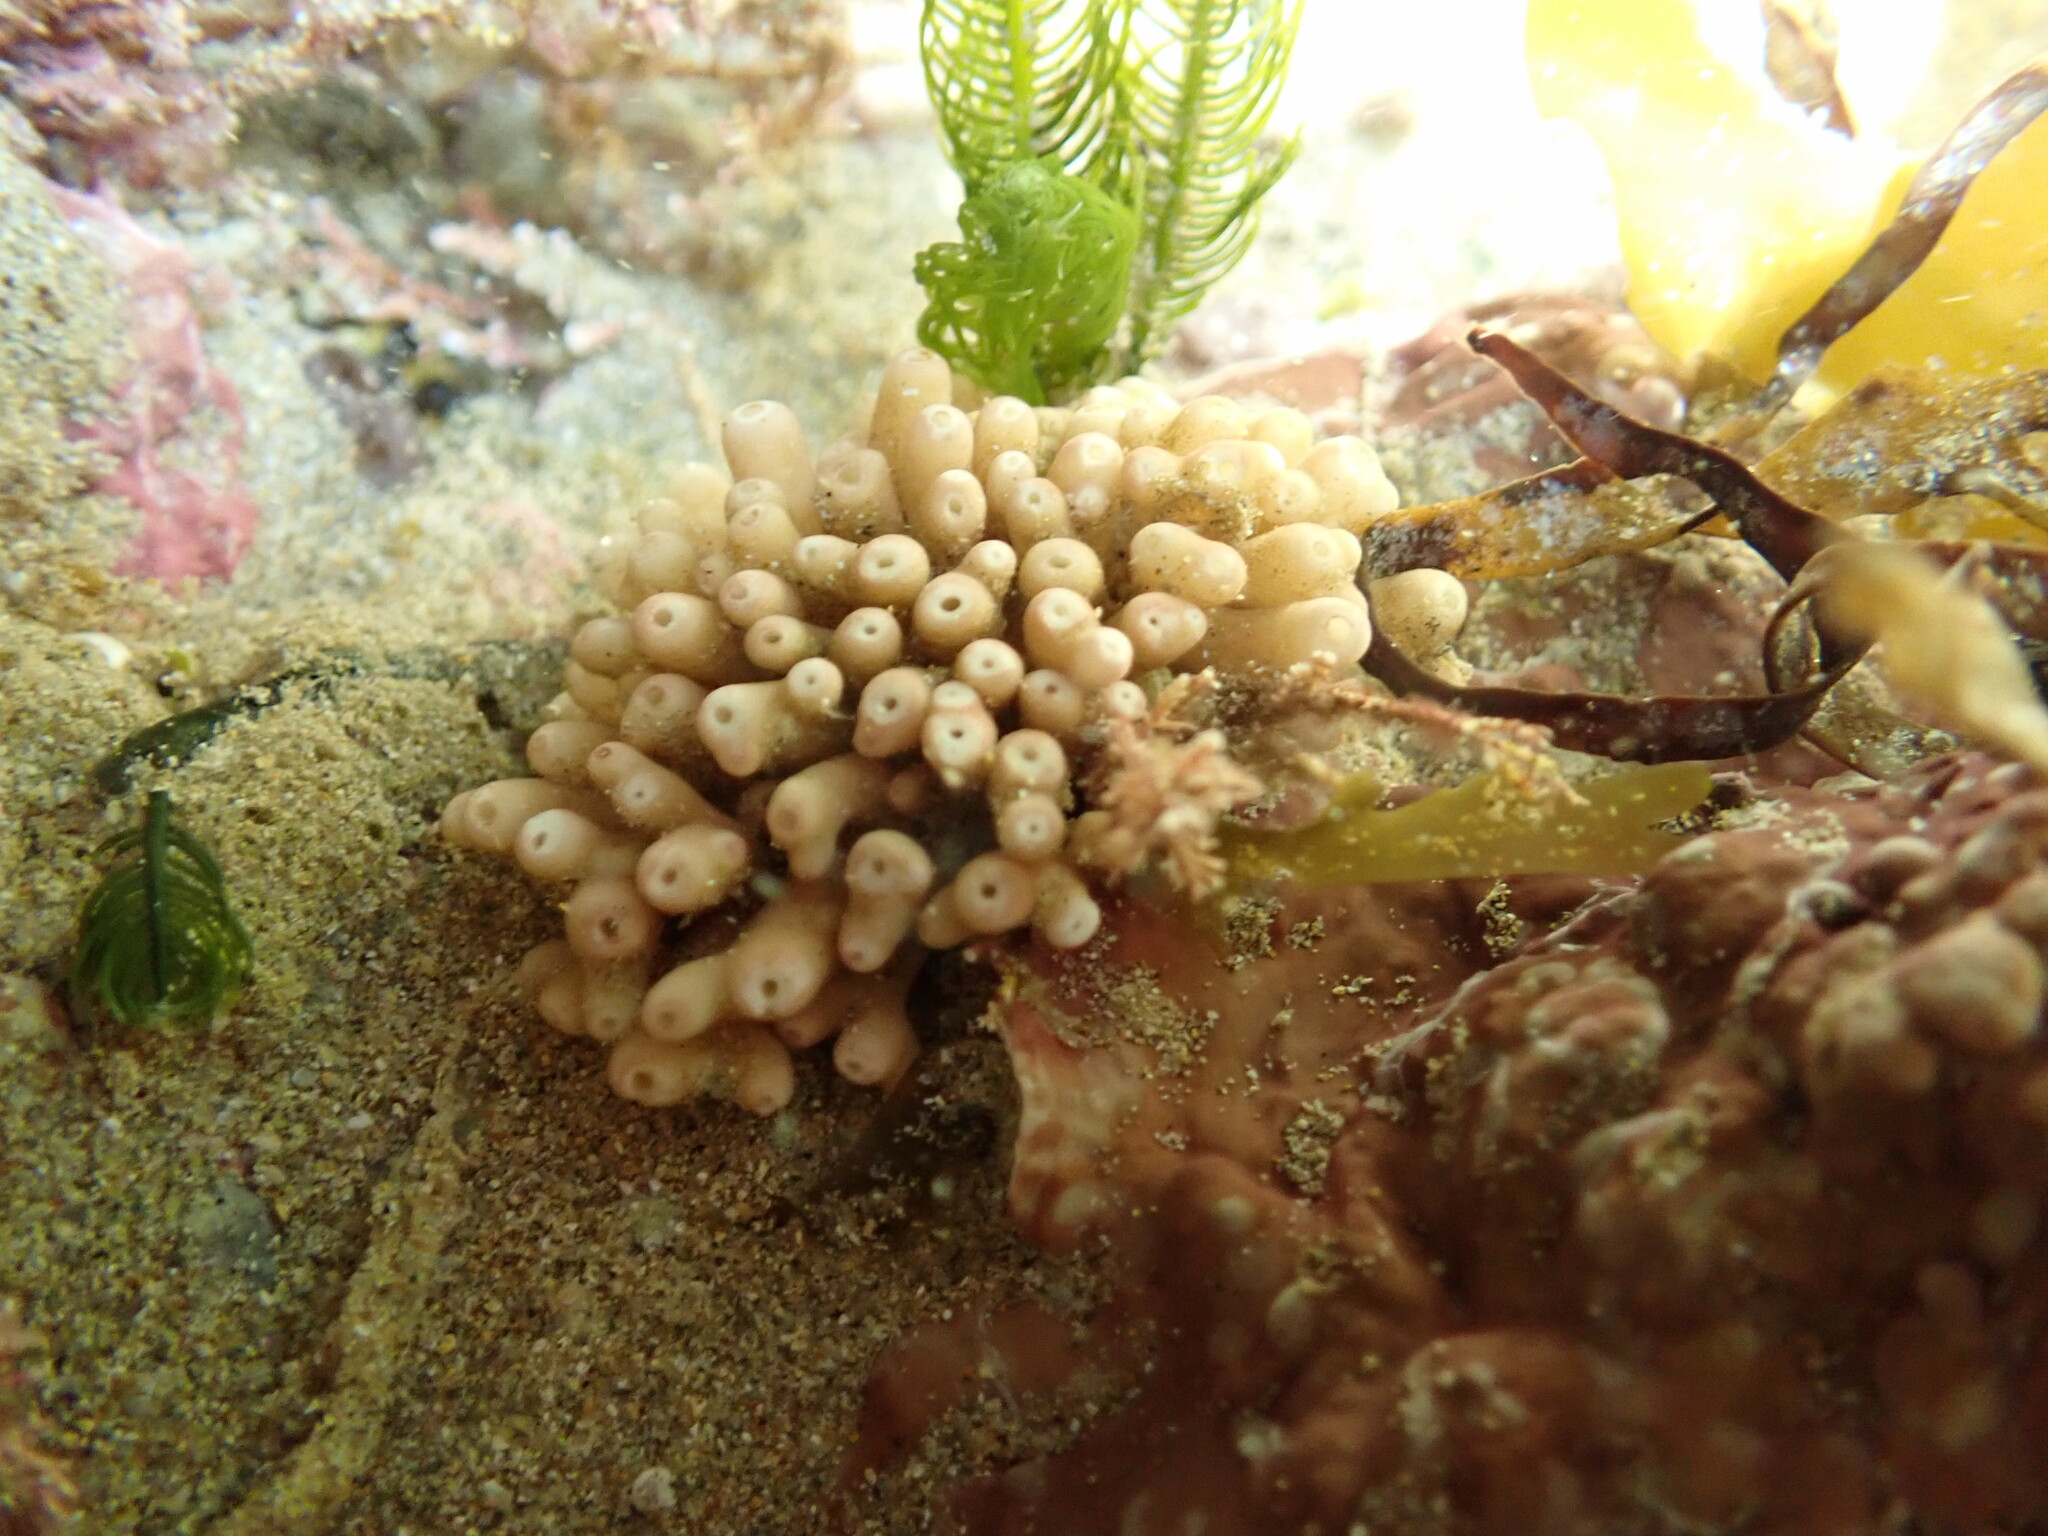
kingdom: Animalia
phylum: Porifera
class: Calcarea
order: Leucosolenida
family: Syconidae
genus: Sycon
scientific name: Sycon capricorn
